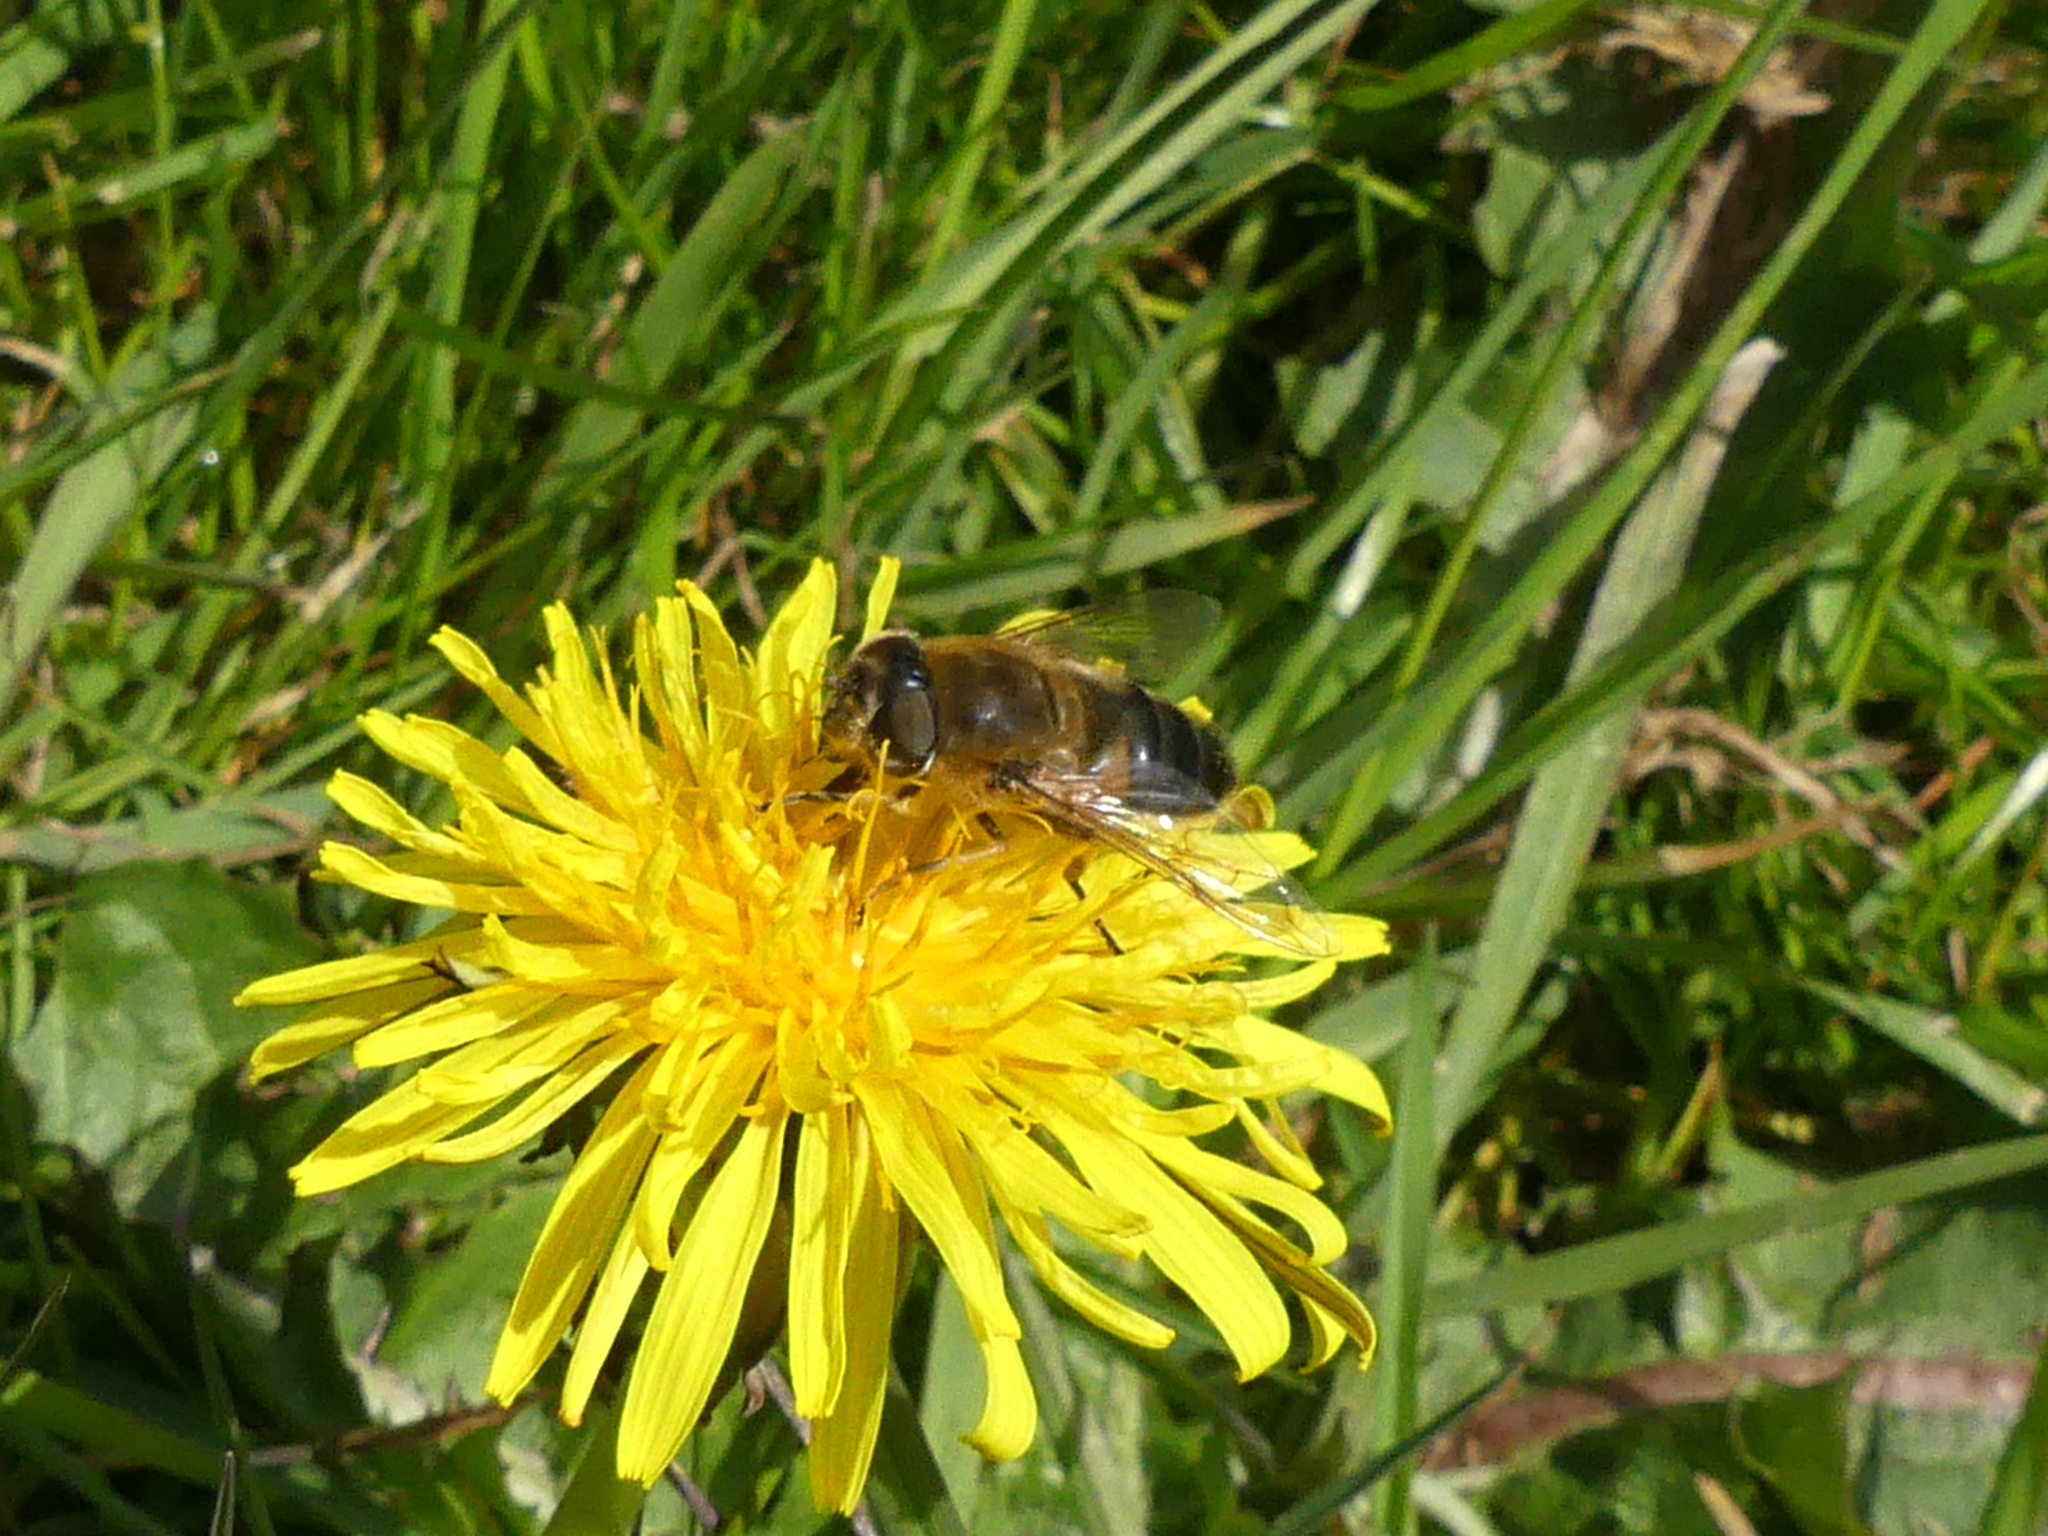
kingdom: Animalia
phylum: Arthropoda
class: Insecta
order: Diptera
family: Syrphidae
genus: Eristalis
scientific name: Eristalis pertinax
